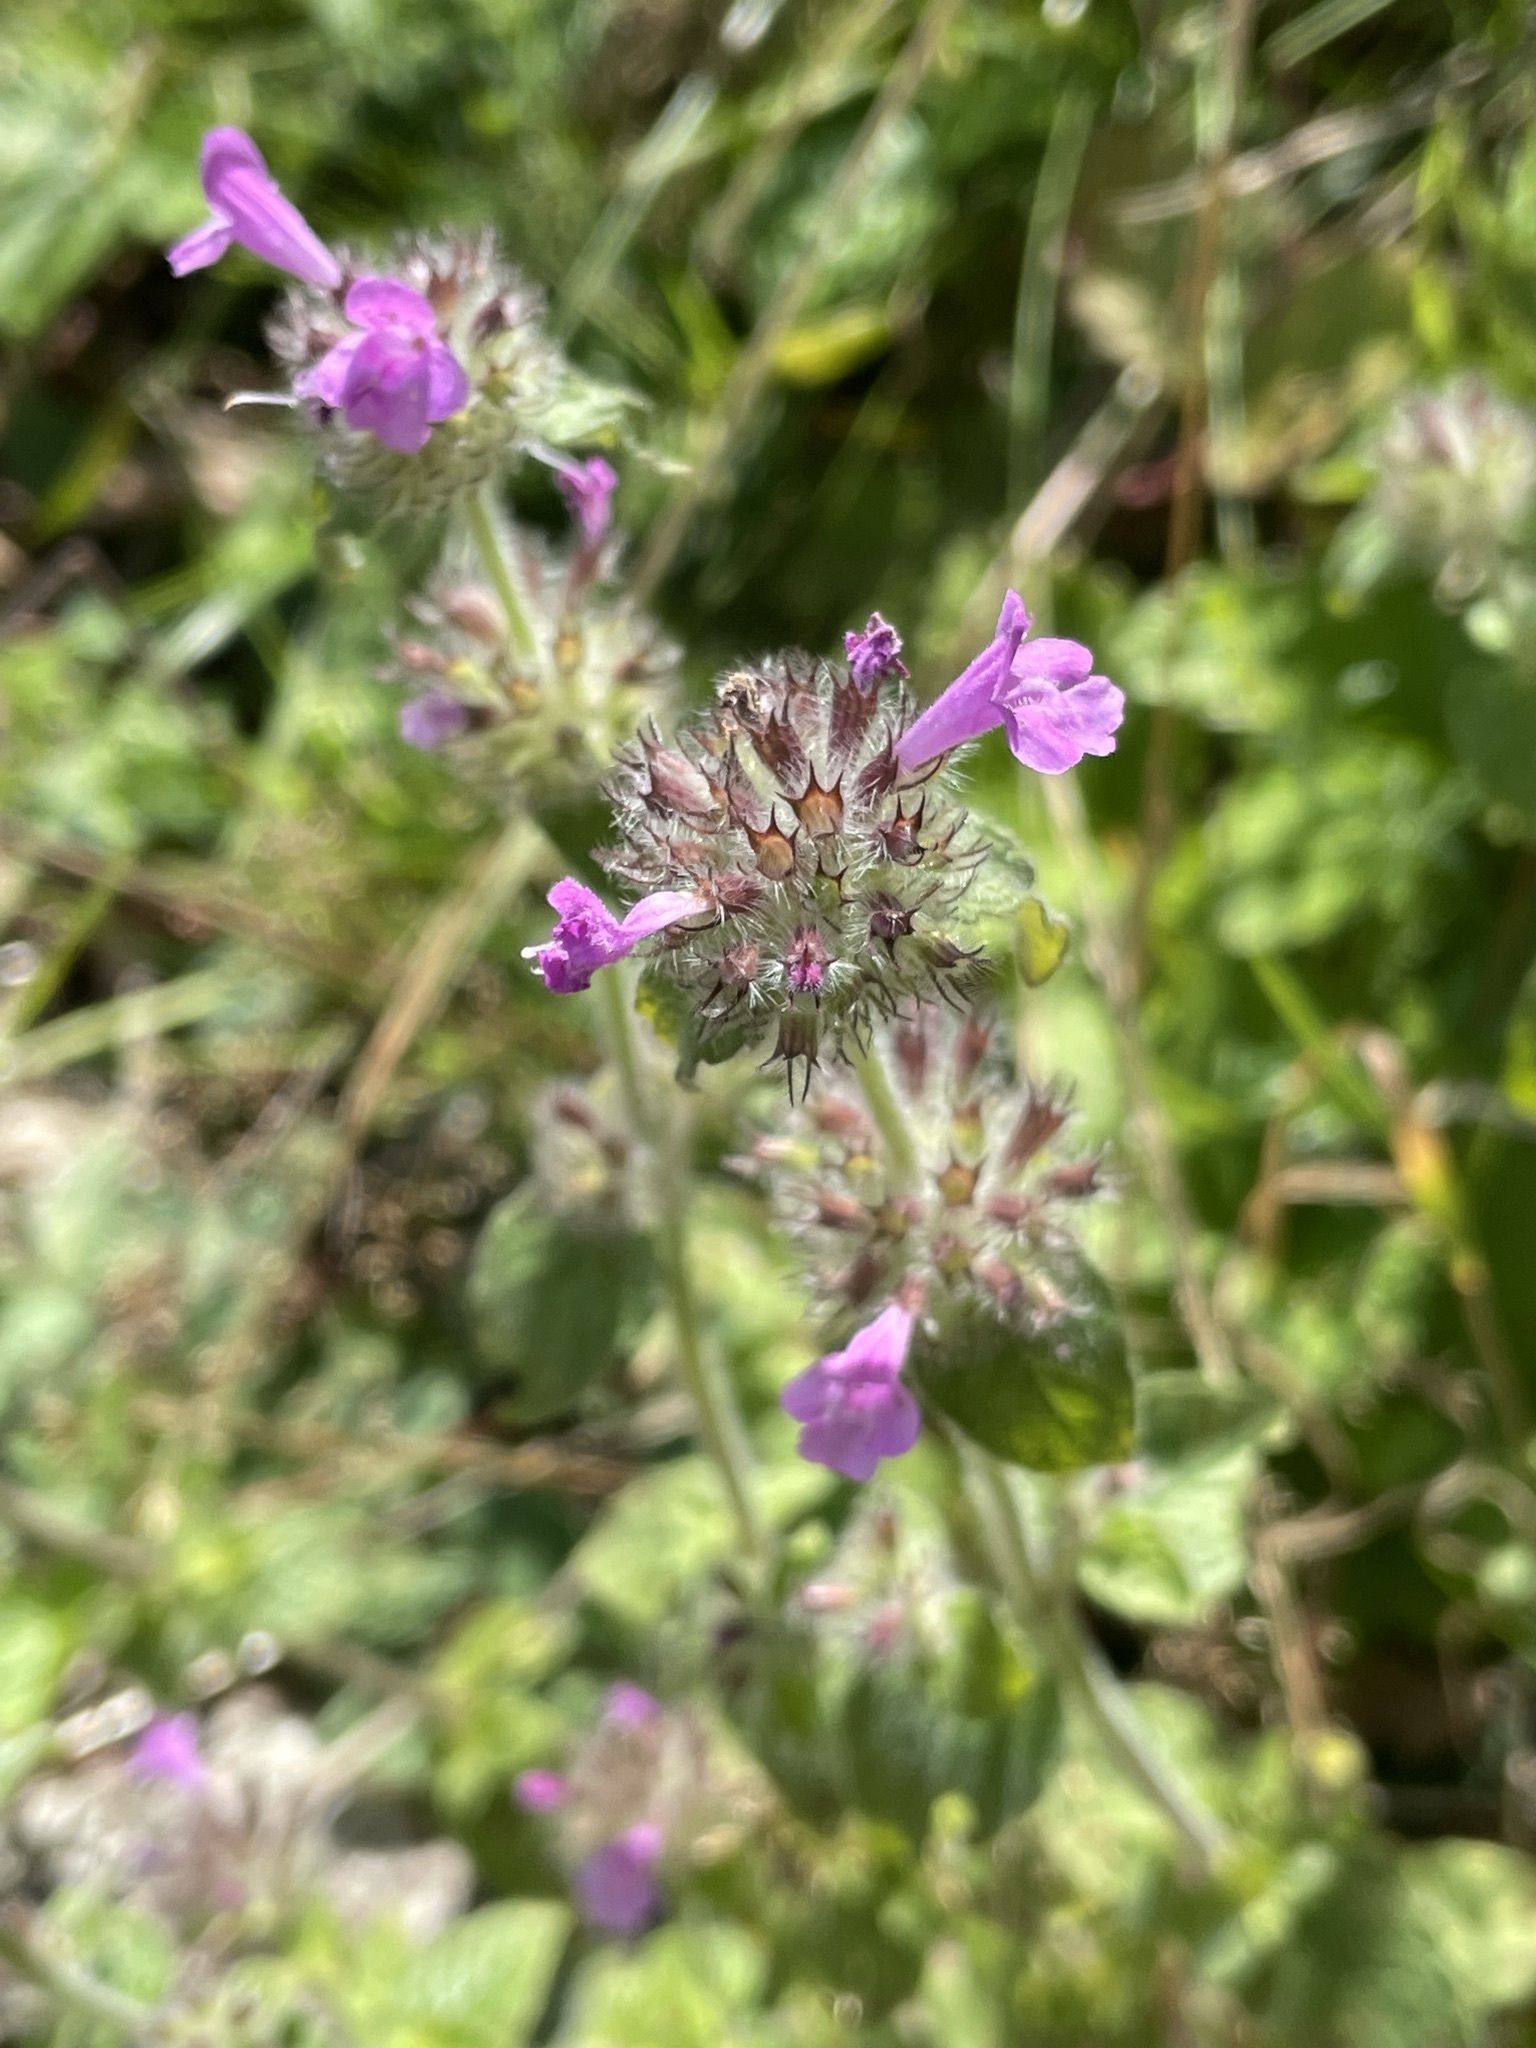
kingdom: Plantae
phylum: Tracheophyta
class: Magnoliopsida
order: Lamiales
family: Lamiaceae
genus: Clinopodium
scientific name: Clinopodium vulgare
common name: Wild basil
